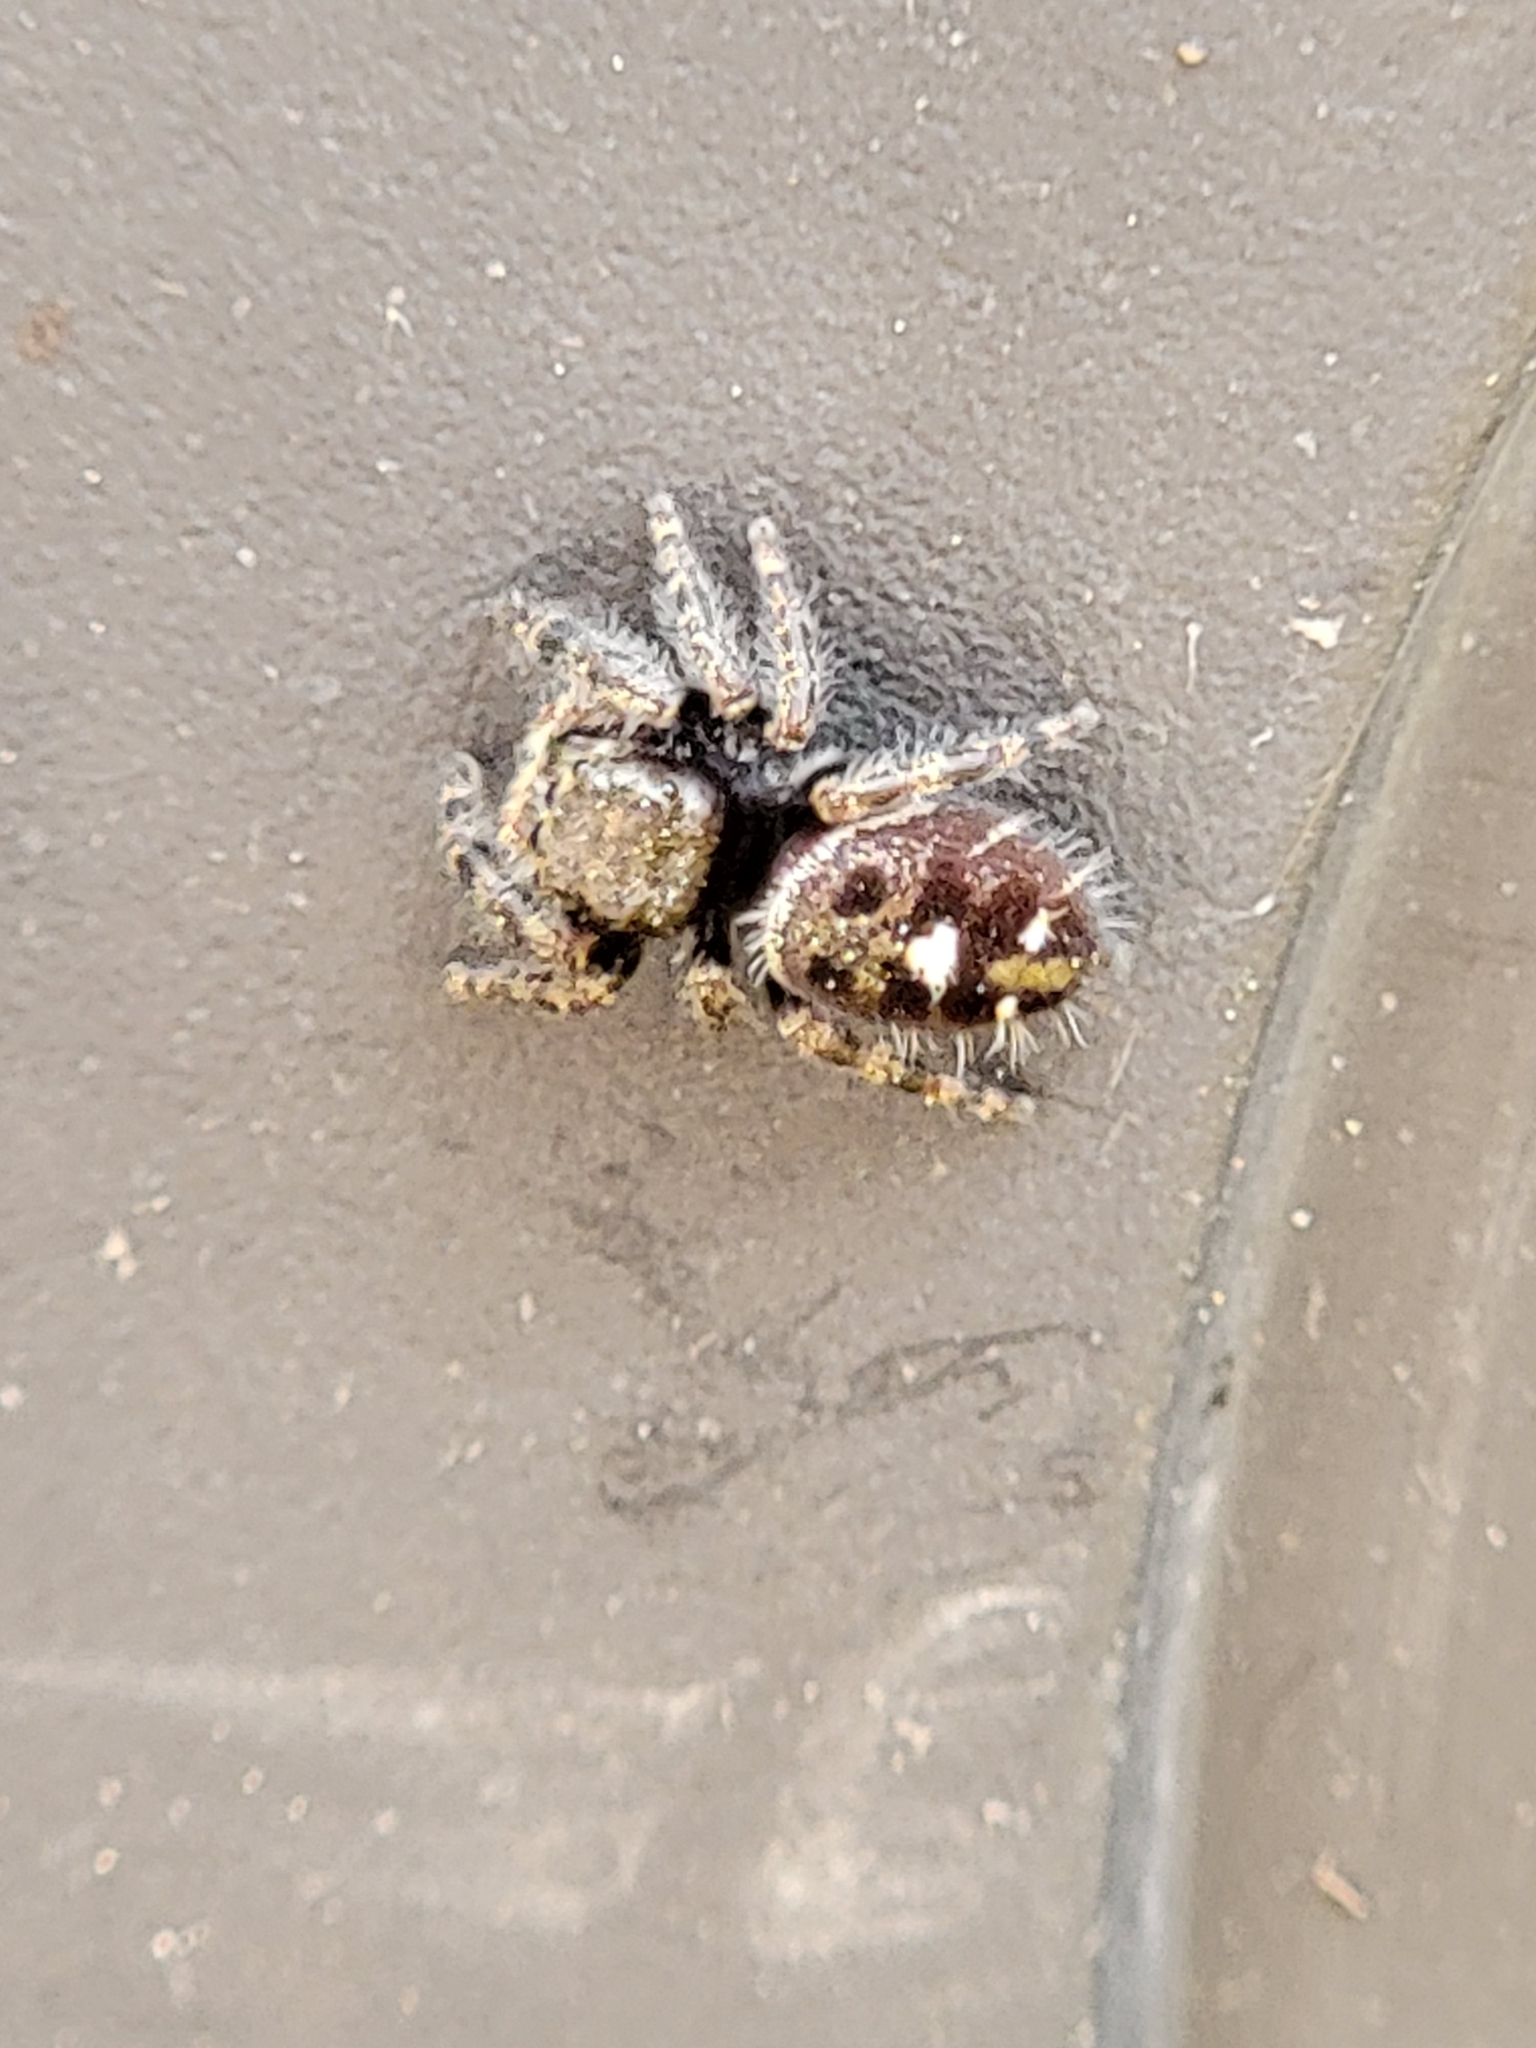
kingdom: Animalia
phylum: Arthropoda
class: Arachnida
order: Araneae
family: Salticidae
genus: Phidippus
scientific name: Phidippus audax
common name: Bold jumper
